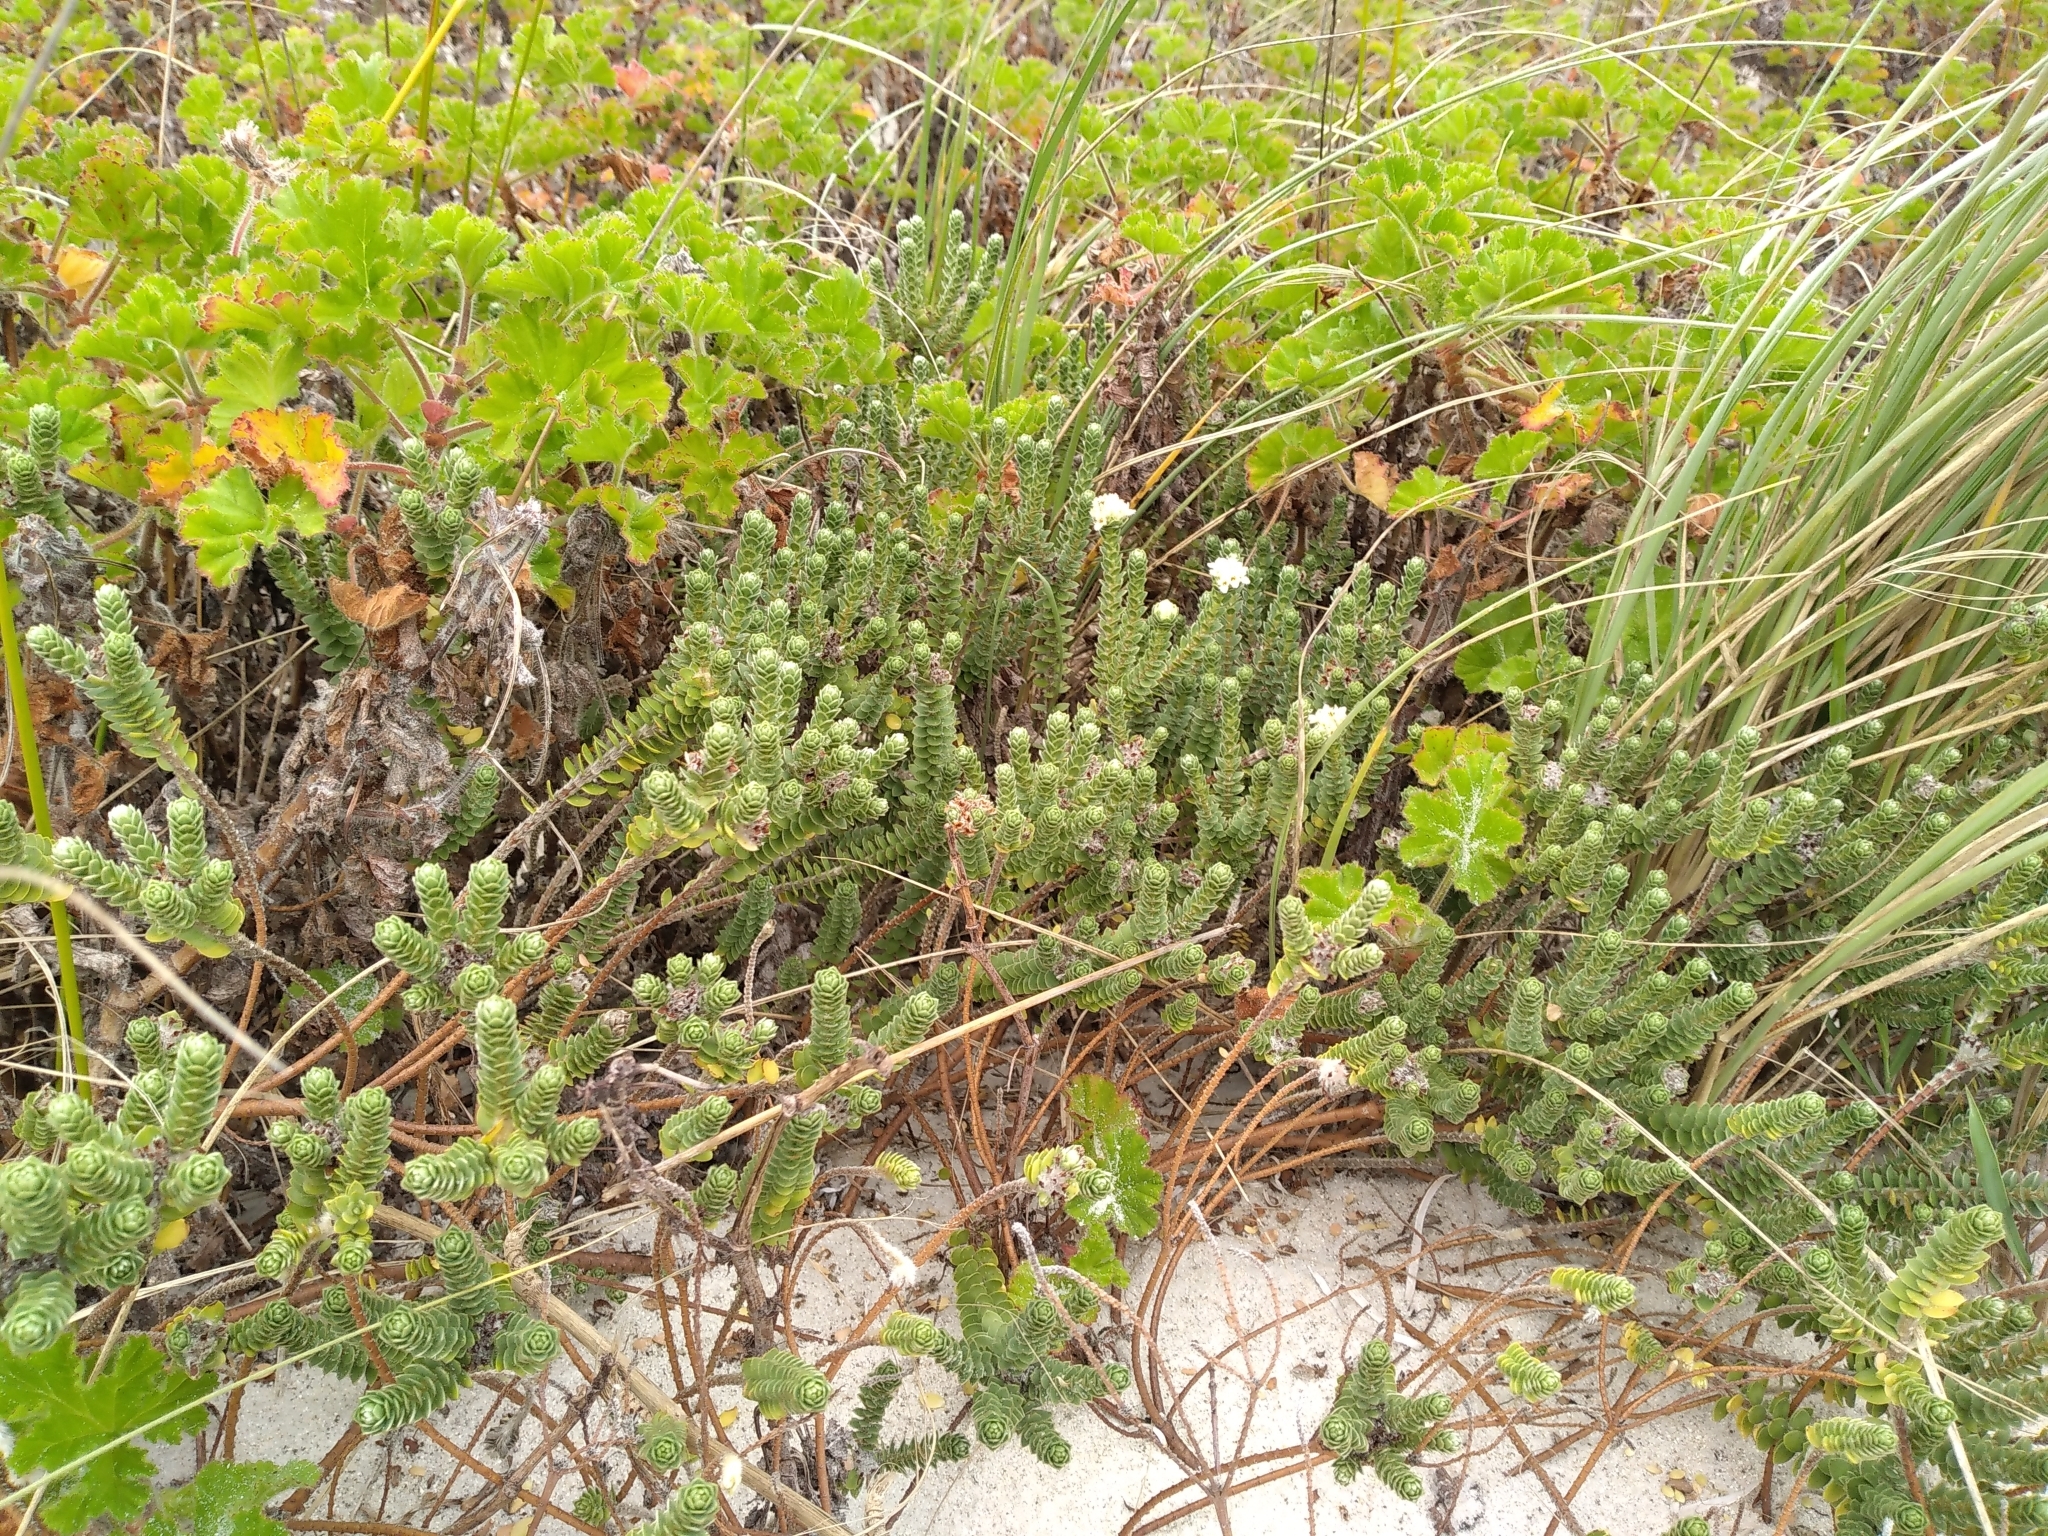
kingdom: Plantae
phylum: Tracheophyta
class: Magnoliopsida
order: Malvales
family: Thymelaeaceae
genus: Pimelea
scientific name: Pimelea villosa
